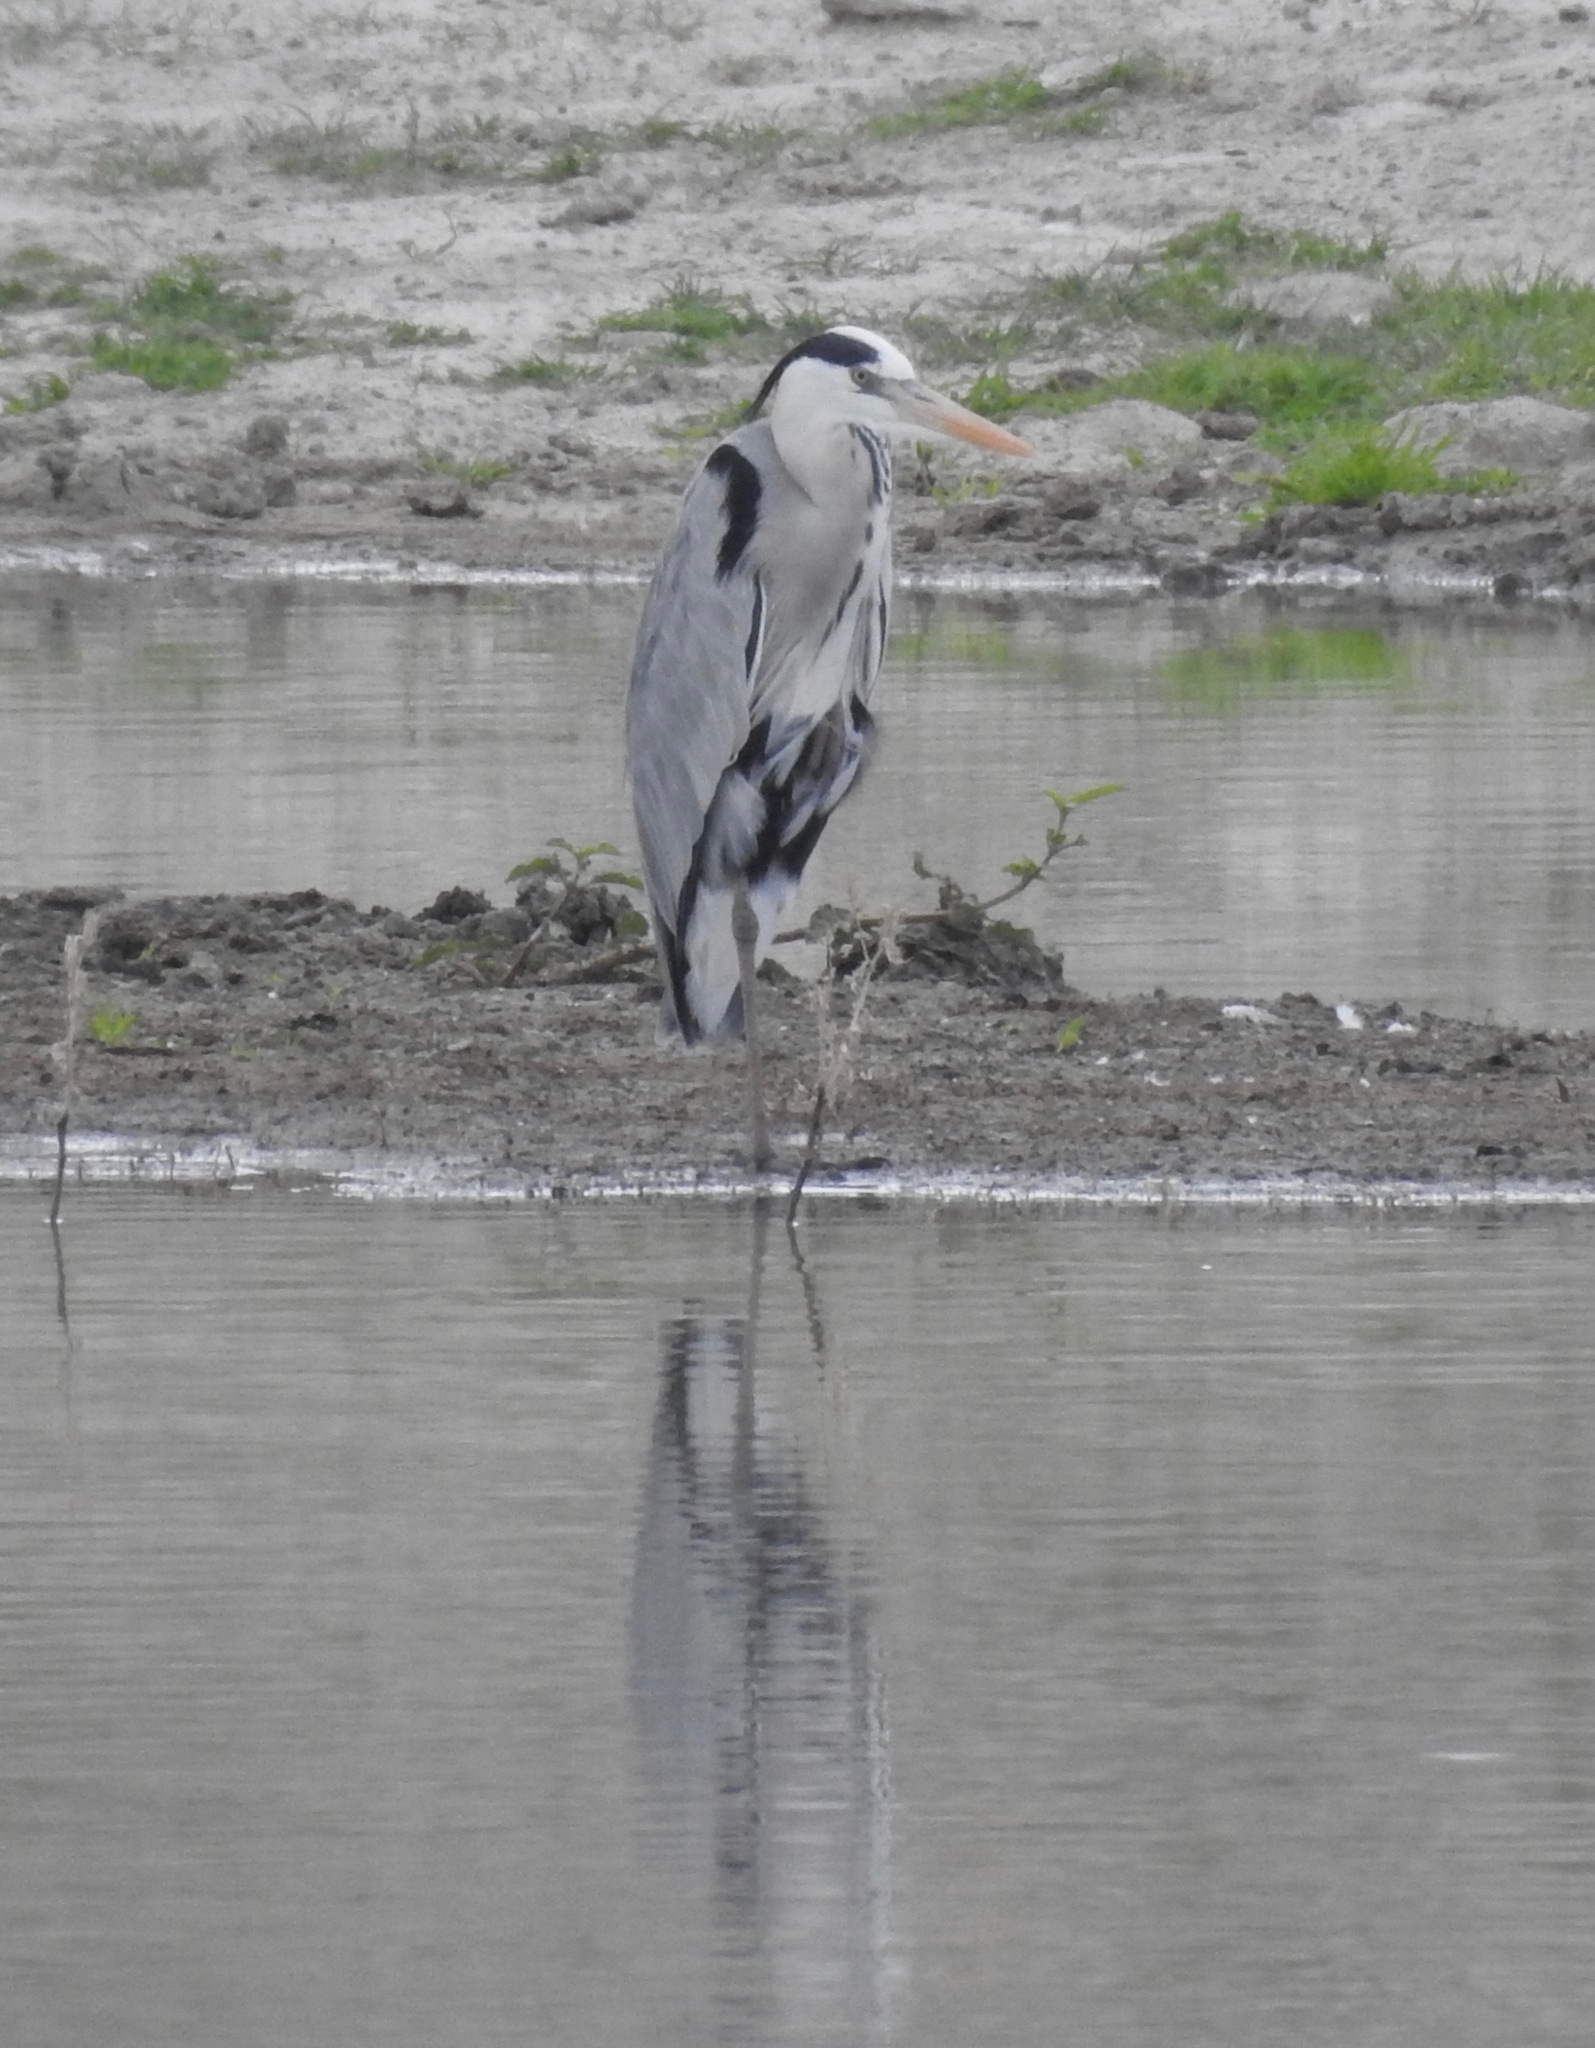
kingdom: Animalia
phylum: Chordata
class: Aves
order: Pelecaniformes
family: Ardeidae
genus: Ardea
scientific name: Ardea cinerea
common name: Grey heron
